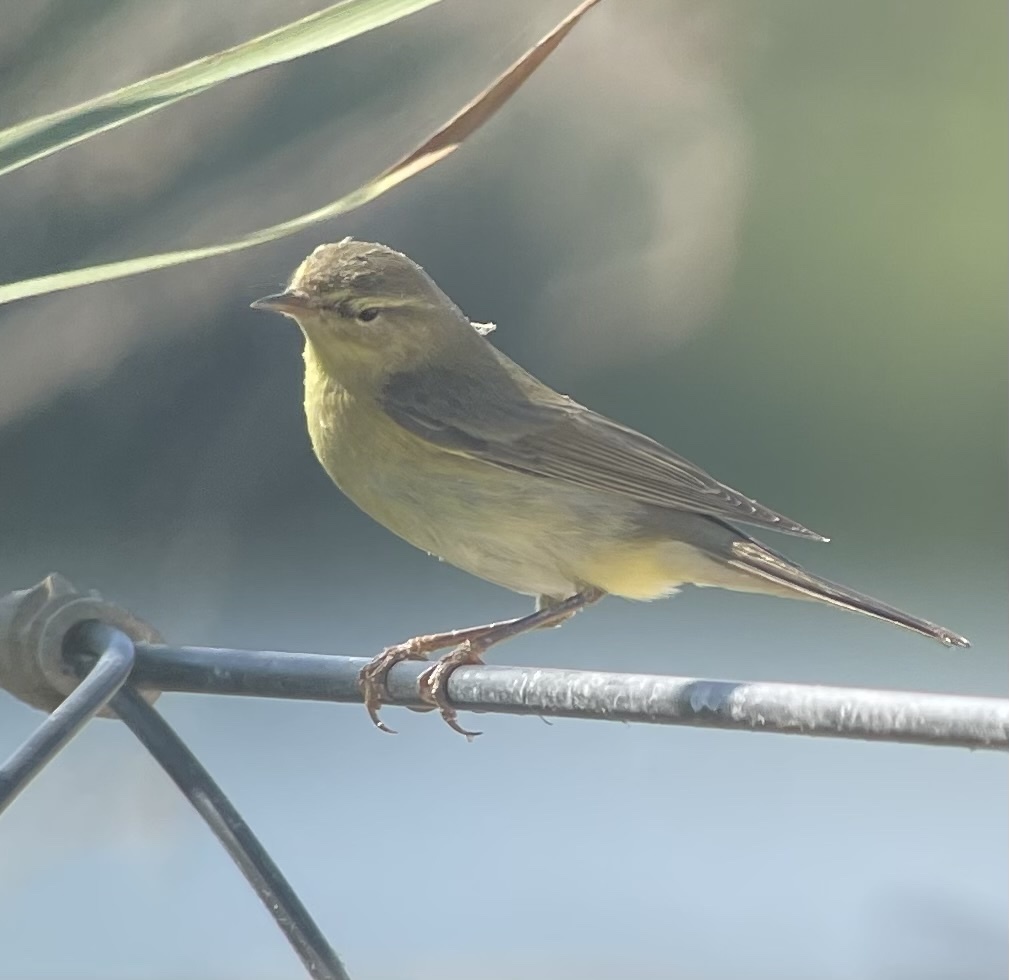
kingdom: Animalia
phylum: Chordata
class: Aves
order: Passeriformes
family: Phylloscopidae
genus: Phylloscopus
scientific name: Phylloscopus trochilus
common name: Willow warbler
